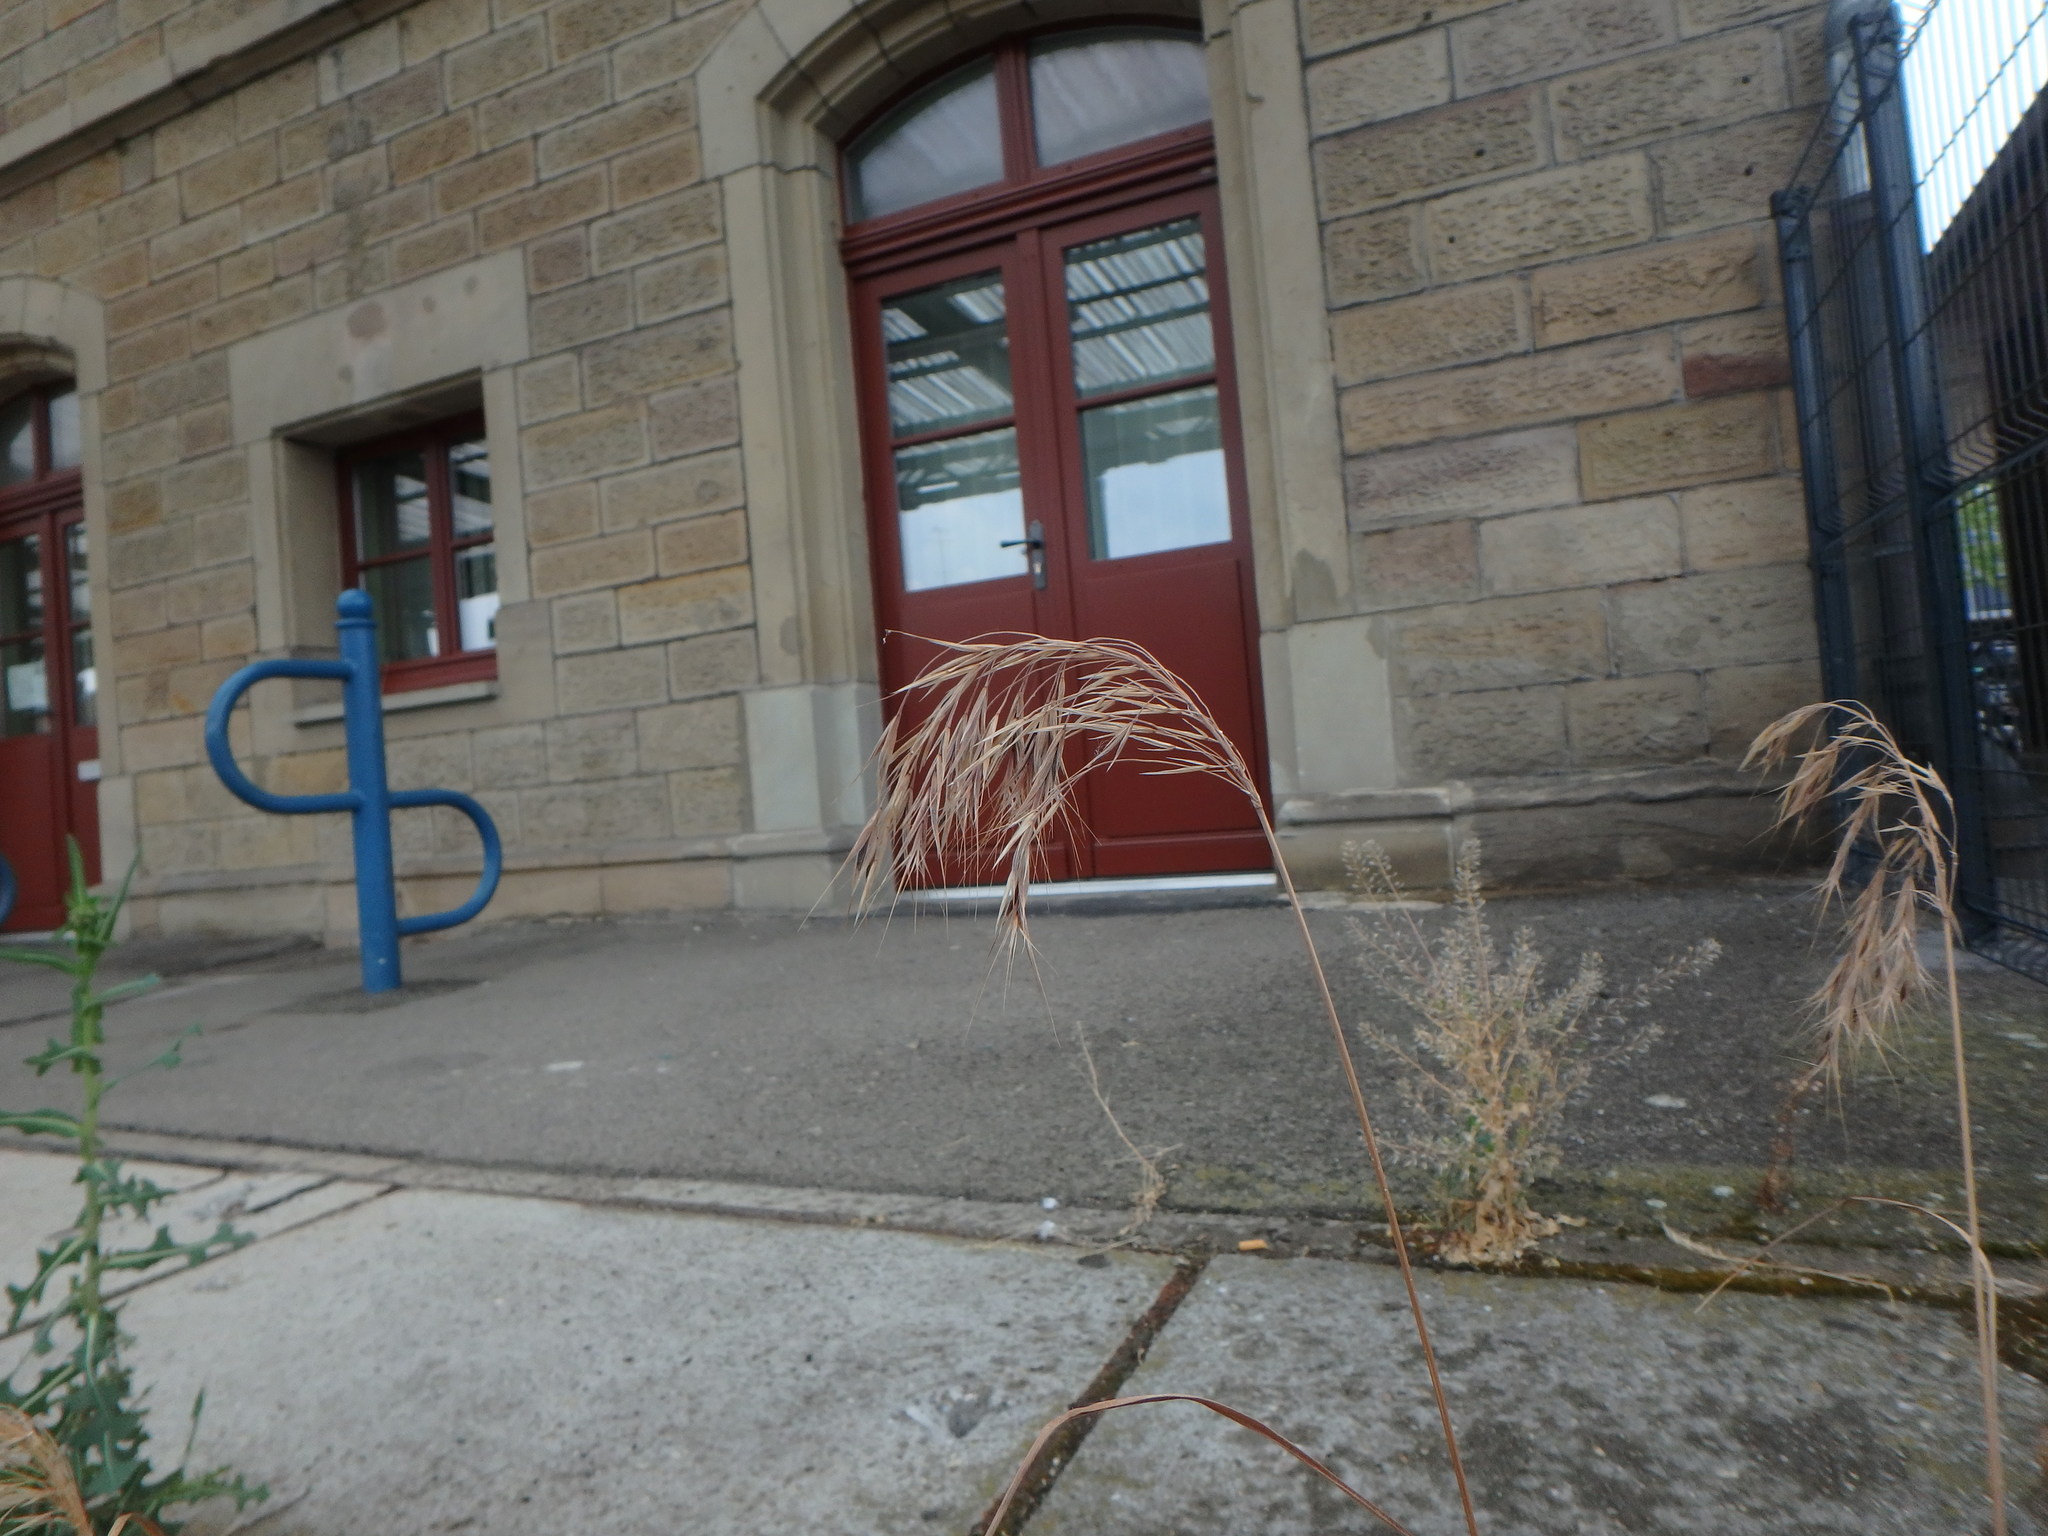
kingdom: Plantae
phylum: Tracheophyta
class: Liliopsida
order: Poales
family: Poaceae
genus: Bromus
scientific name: Bromus tectorum
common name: Cheatgrass
